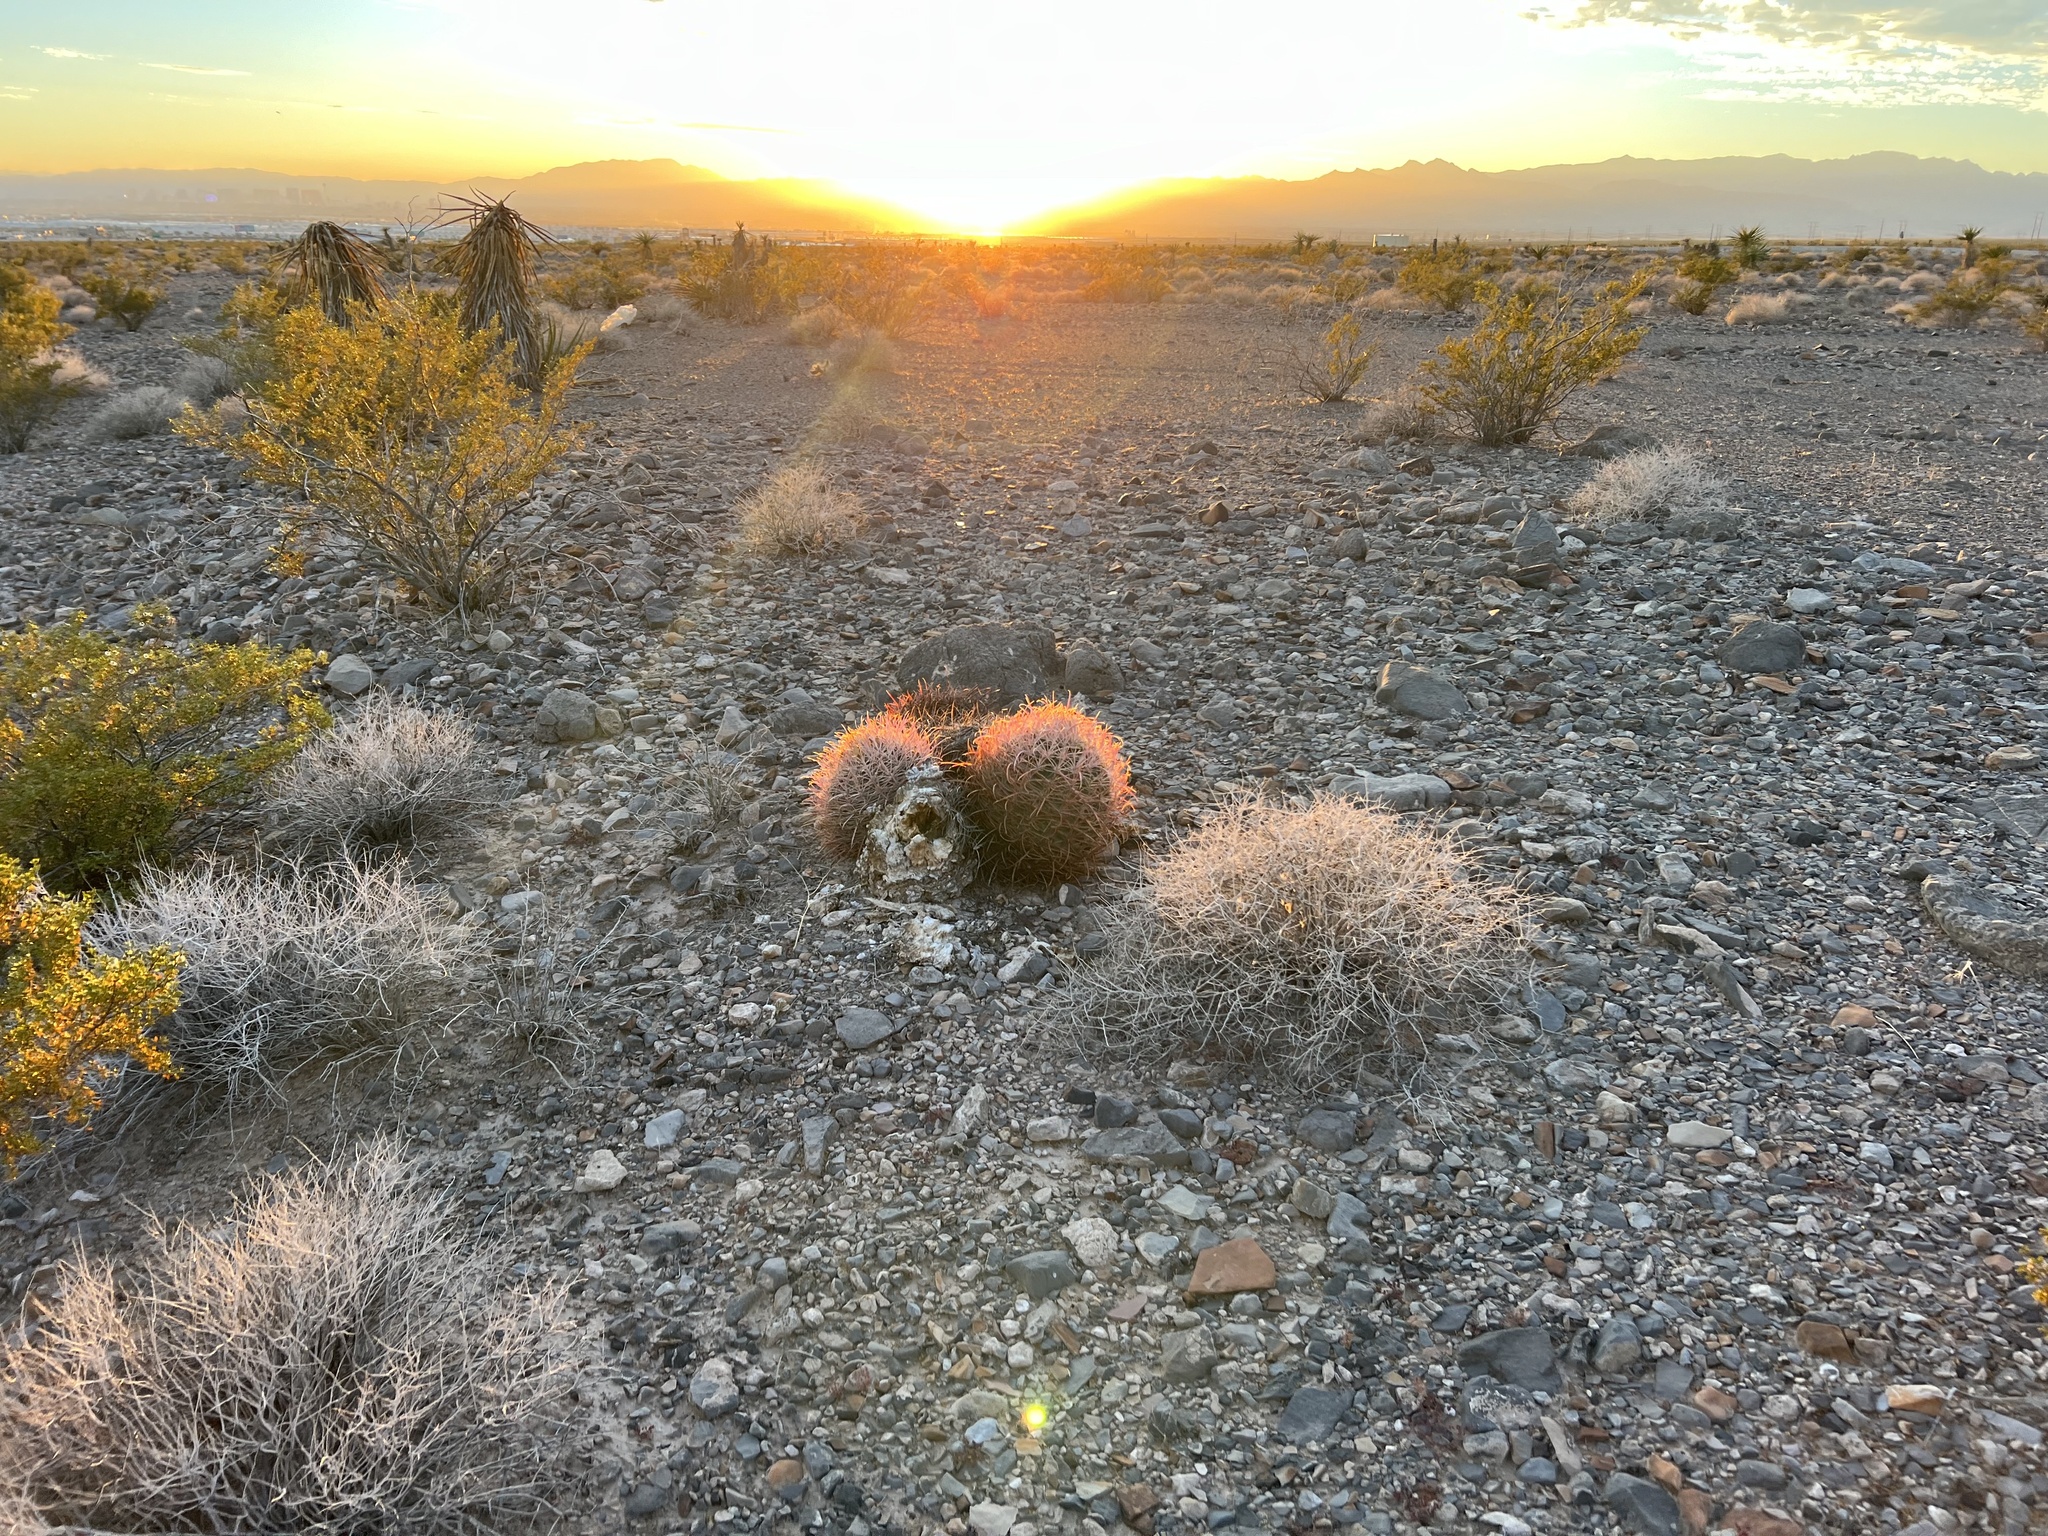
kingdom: Plantae
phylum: Tracheophyta
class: Magnoliopsida
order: Caryophyllales
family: Cactaceae
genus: Ferocactus
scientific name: Ferocactus cylindraceus
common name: California barrel cactus
